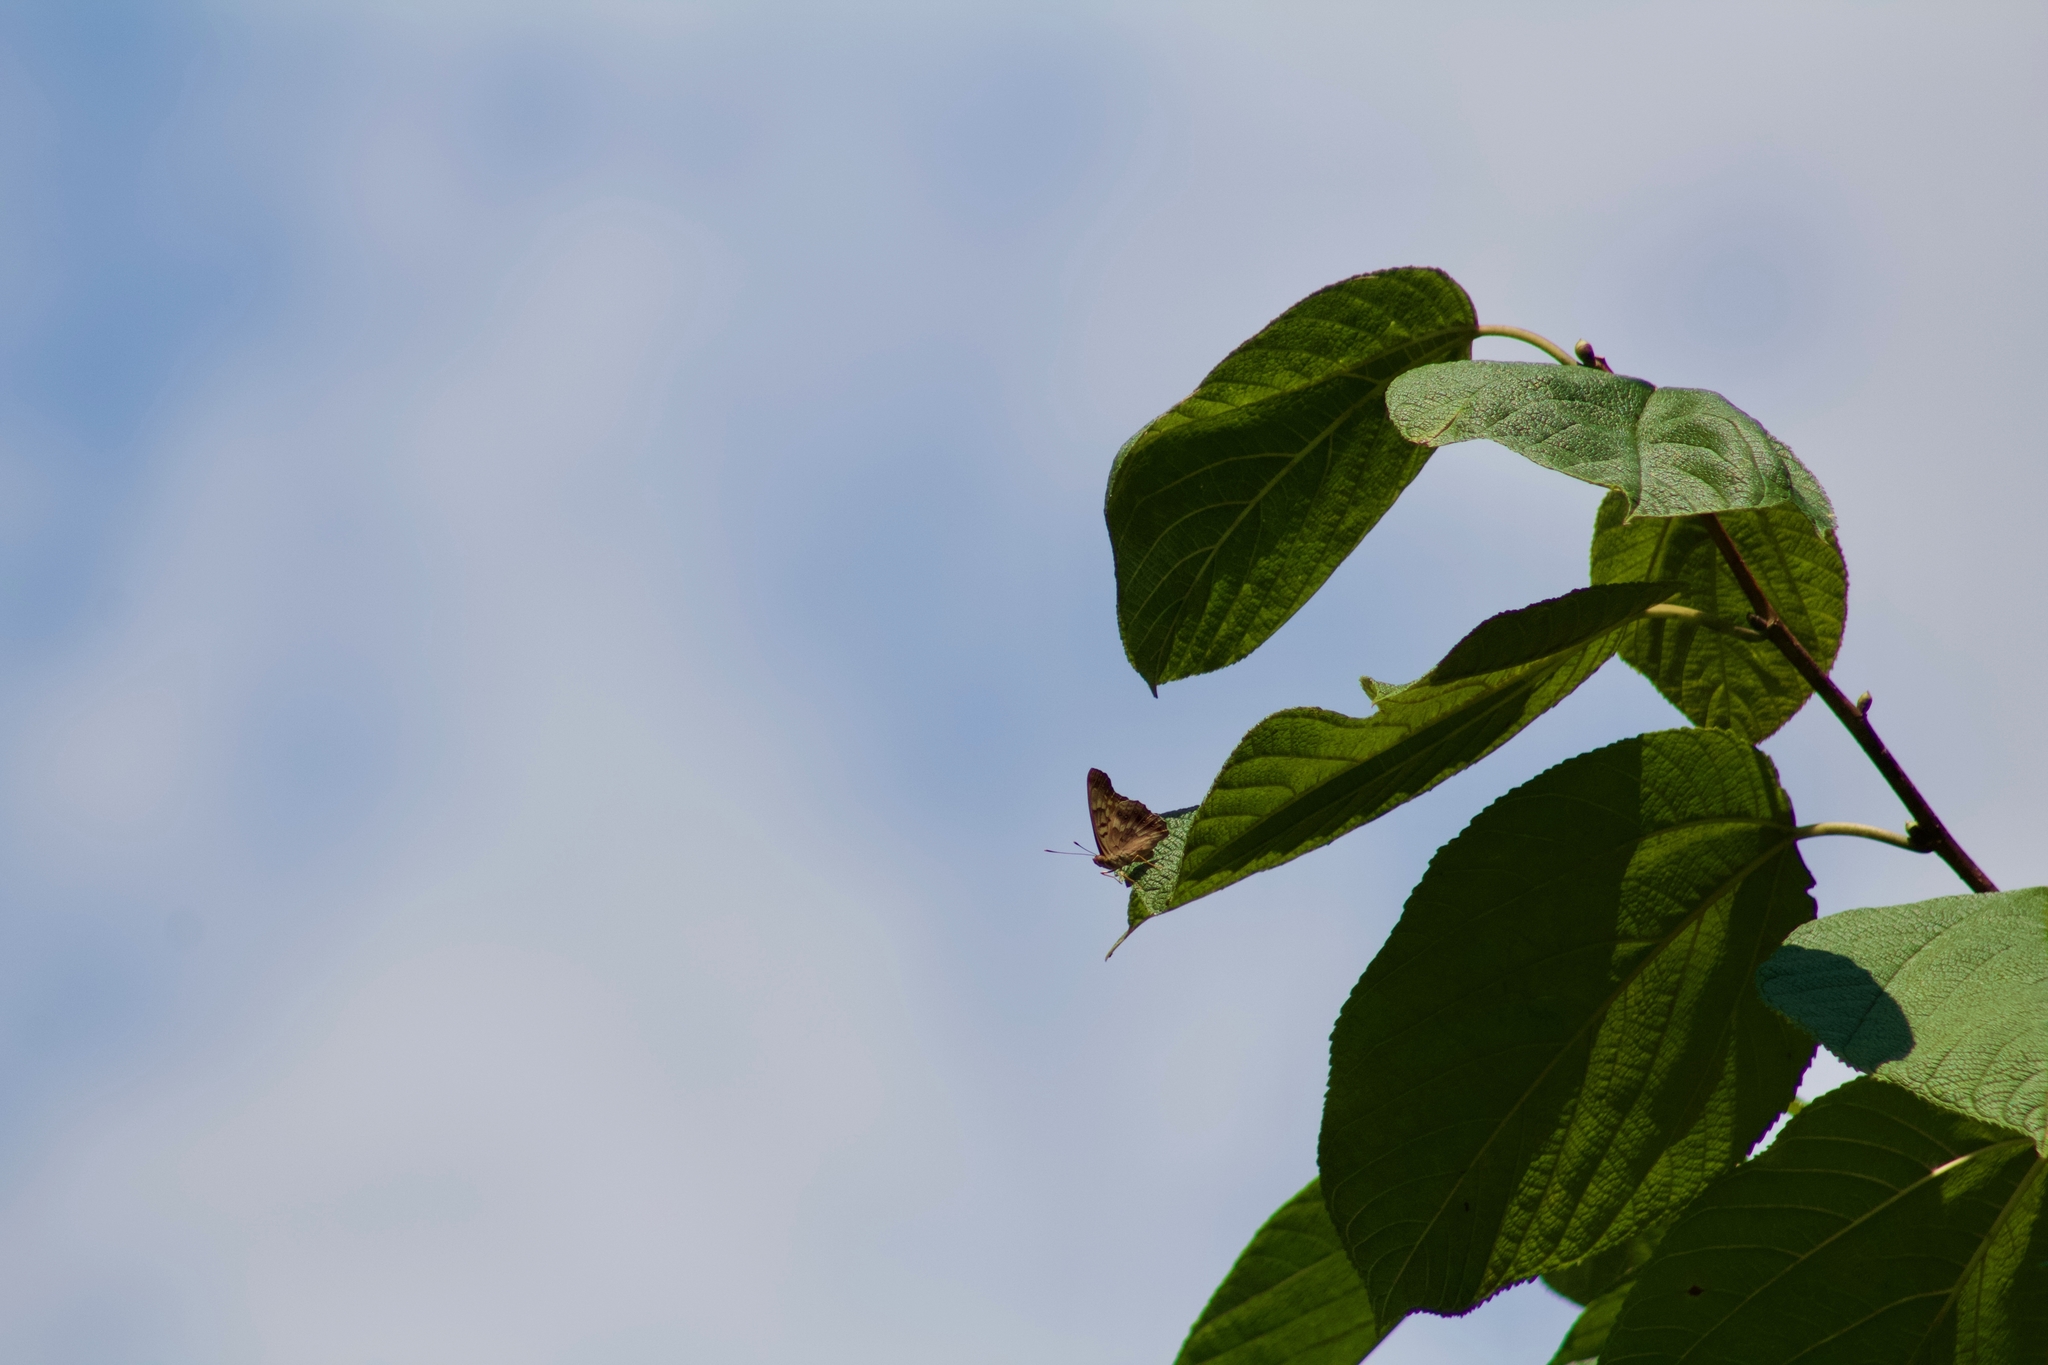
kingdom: Animalia
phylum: Arthropoda
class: Insecta
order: Lepidoptera
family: Nymphalidae
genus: Asterocampa
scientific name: Asterocampa celtis
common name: Hackberry emperor
